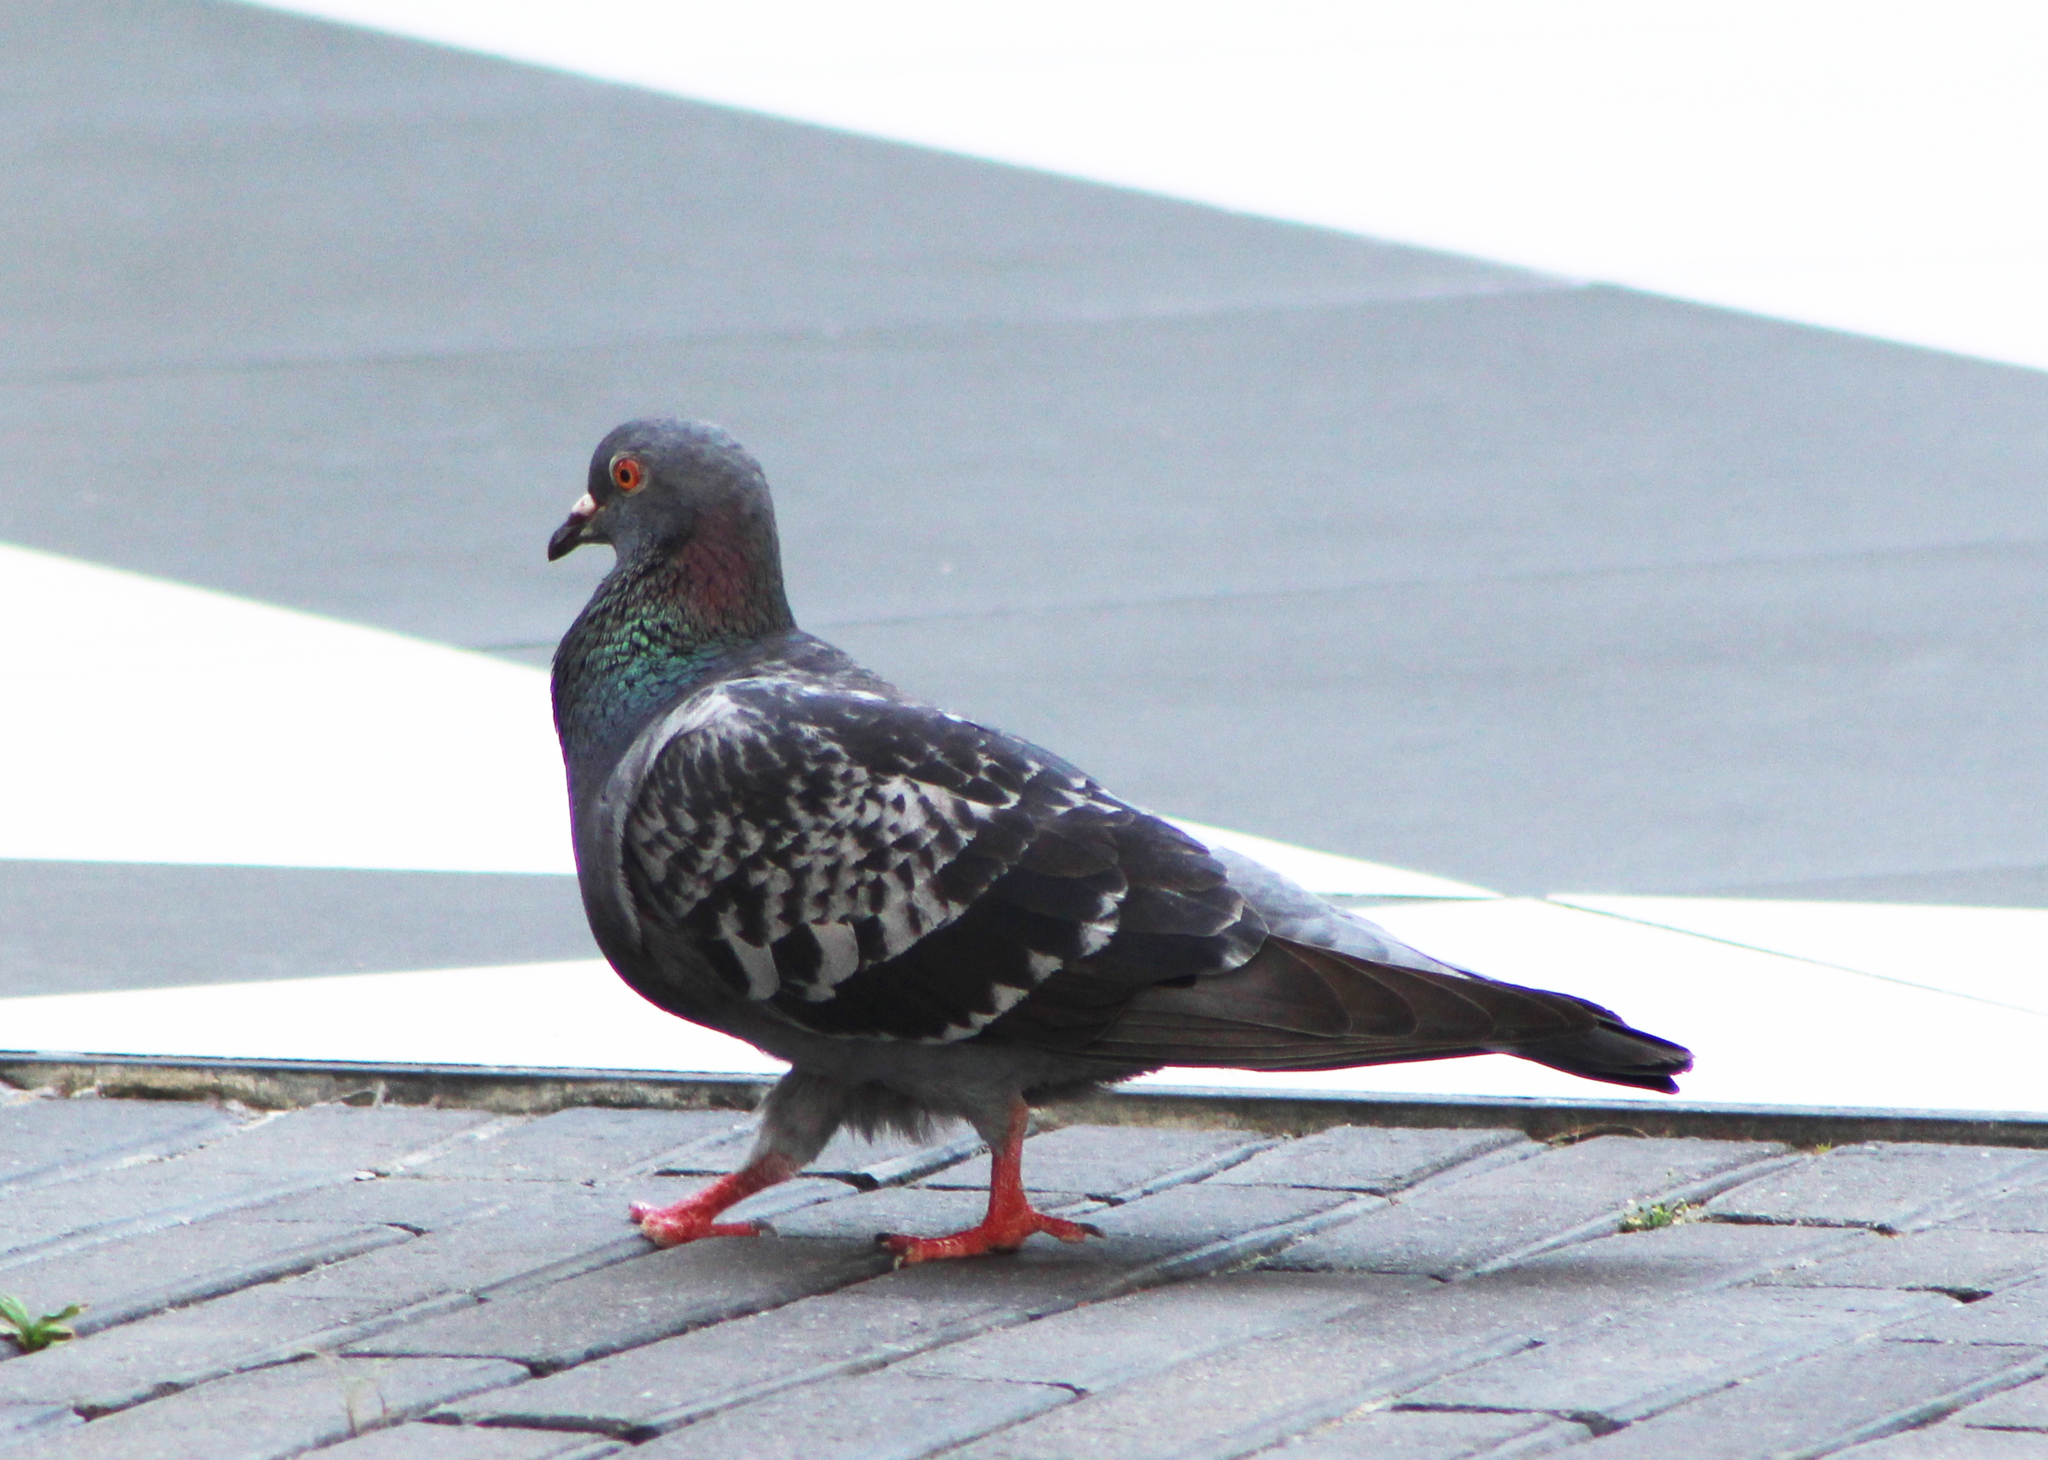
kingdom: Animalia
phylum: Chordata
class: Aves
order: Columbiformes
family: Columbidae
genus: Columba
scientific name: Columba livia
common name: Rock pigeon
